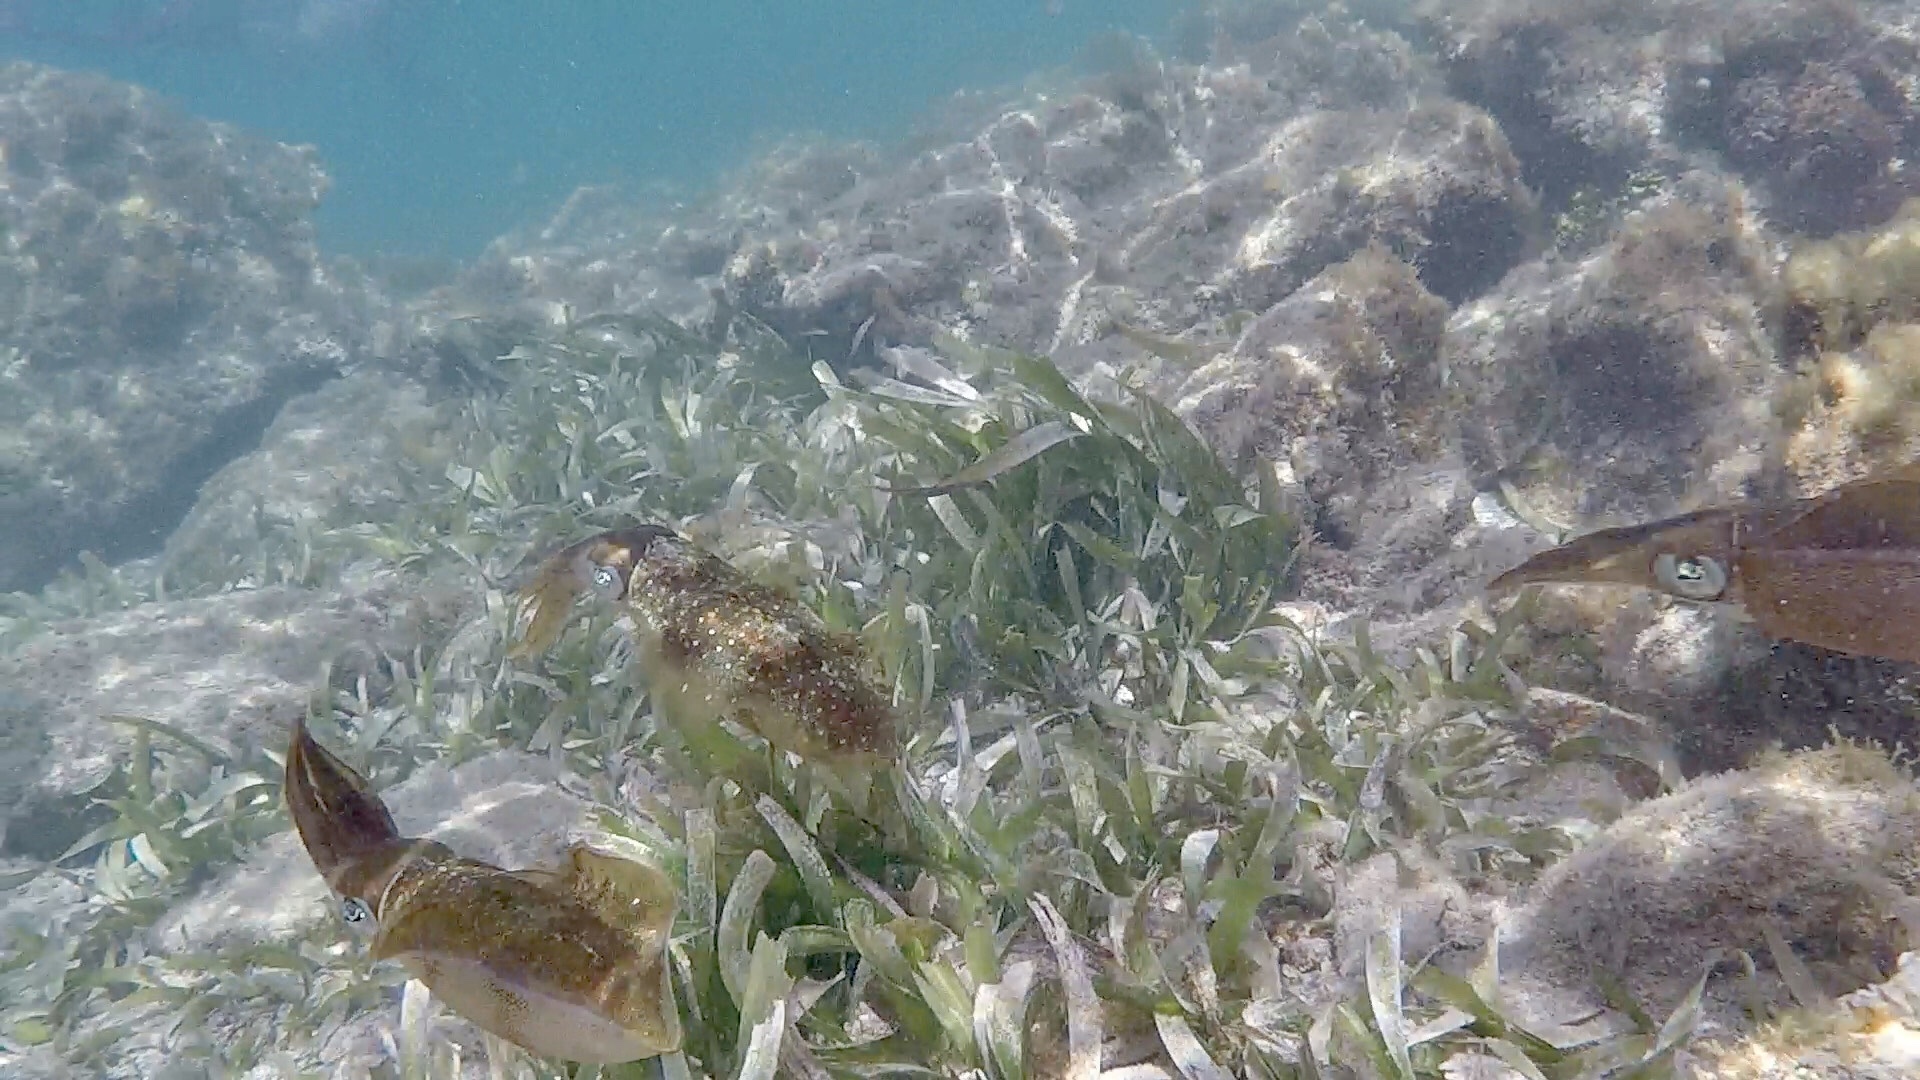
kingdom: Animalia
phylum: Mollusca
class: Cephalopoda
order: Myopsida
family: Loliginidae
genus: Sepioteuthis
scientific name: Sepioteuthis sepioidea
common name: Caribbean reef squid
